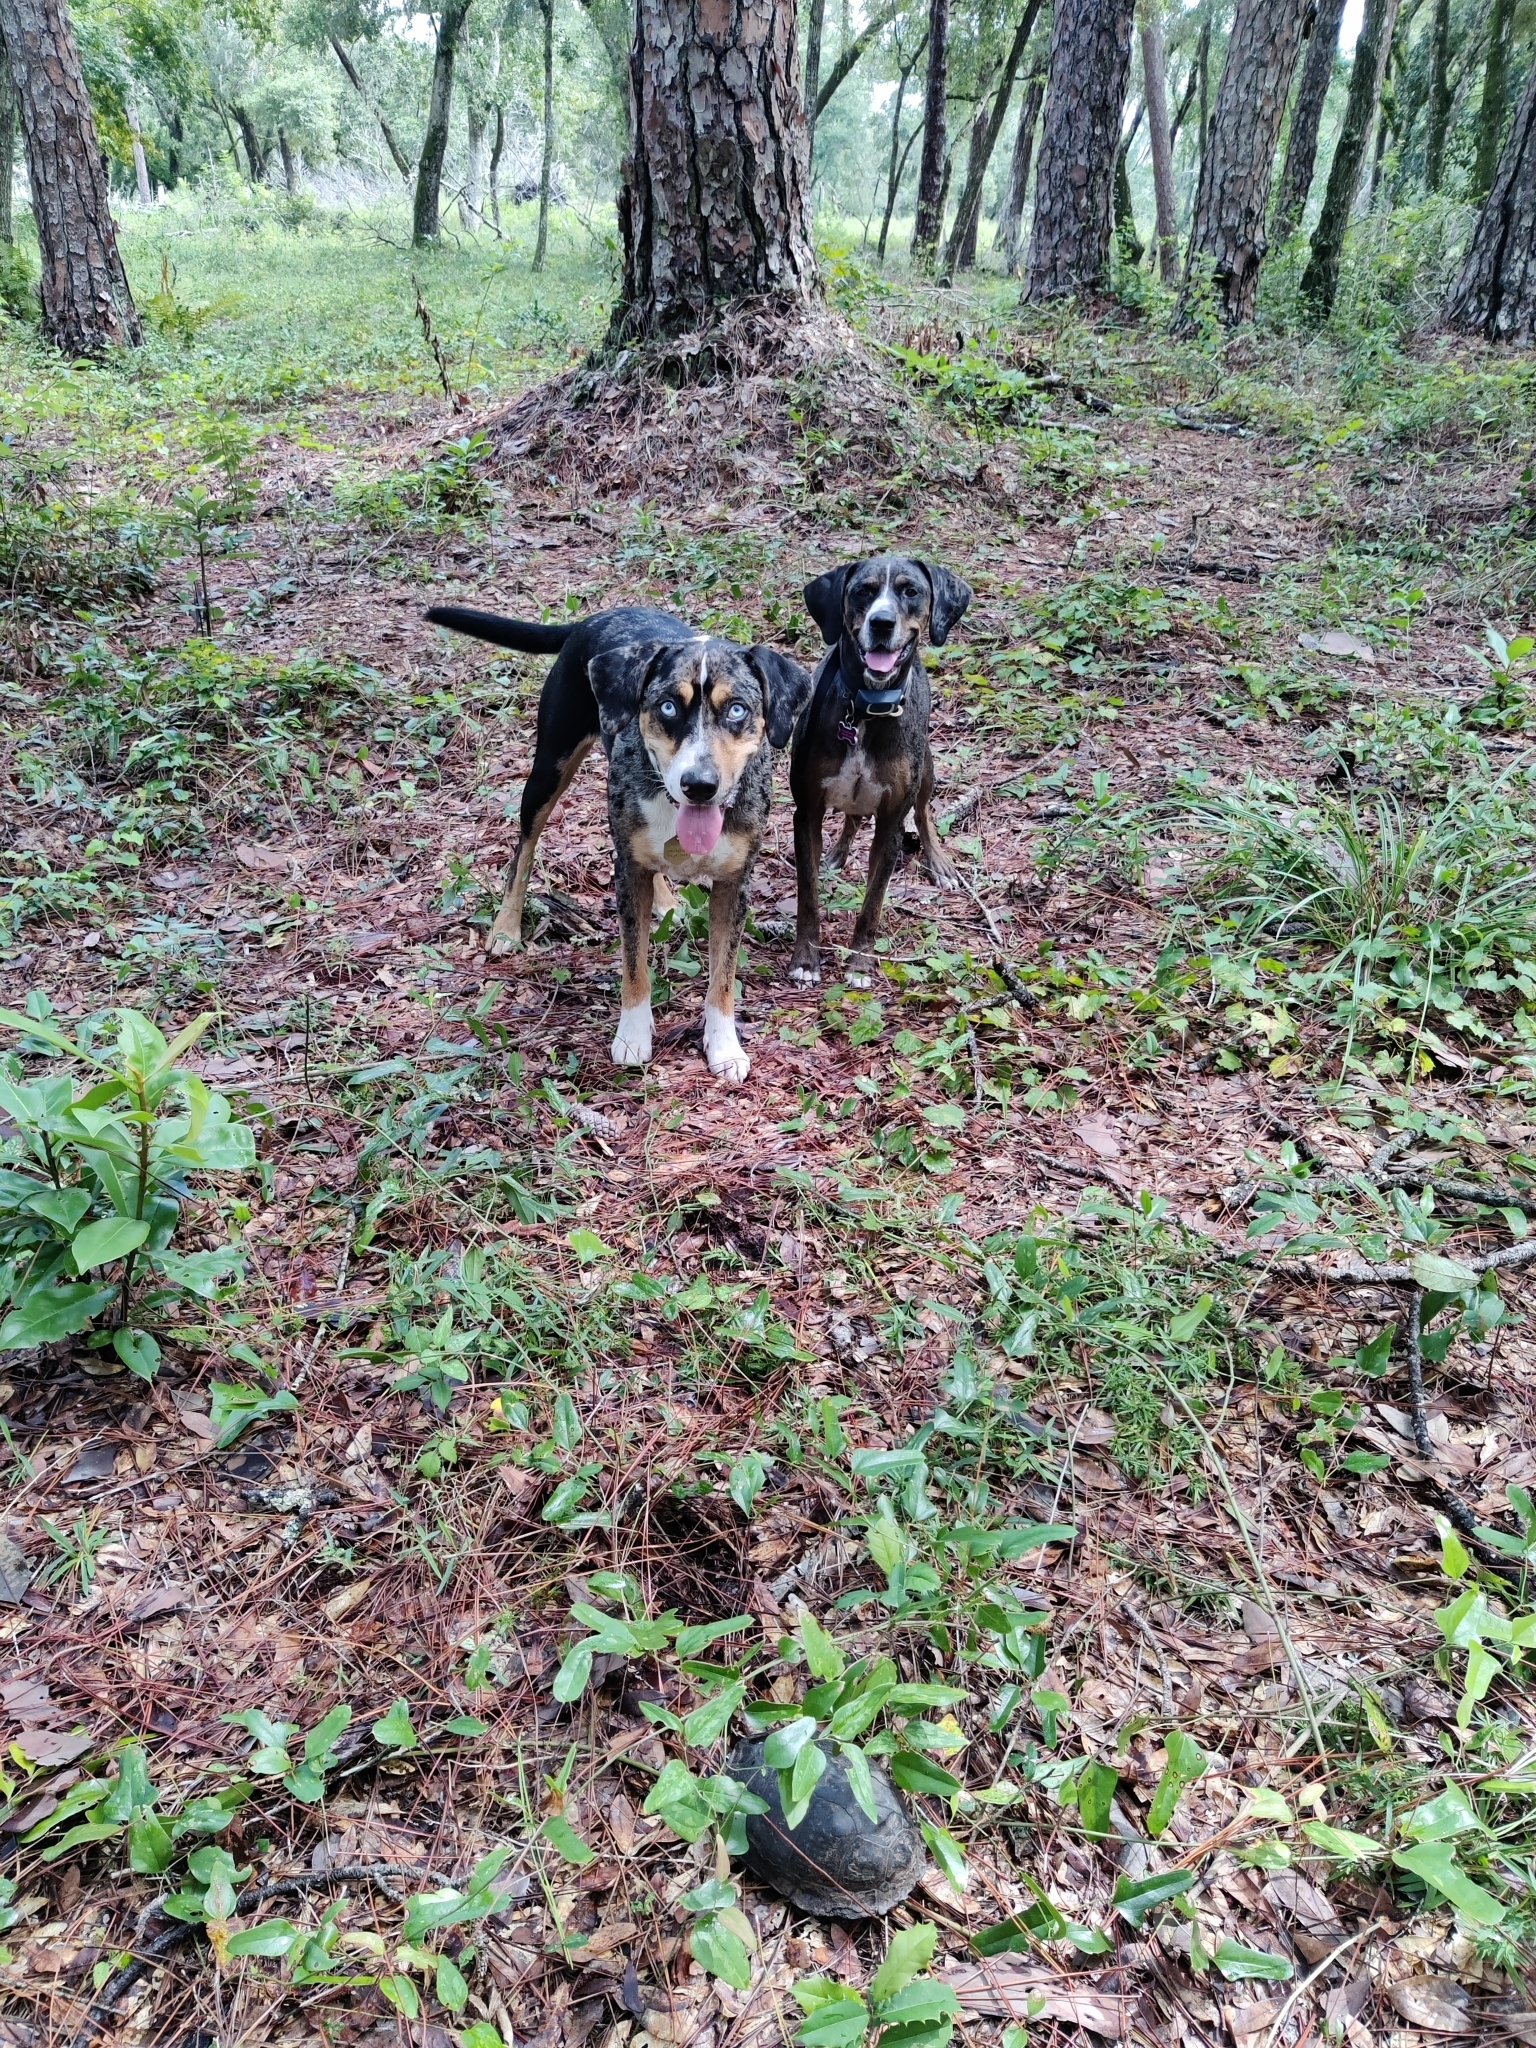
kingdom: Animalia
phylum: Chordata
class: Testudines
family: Emydidae
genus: Terrapene
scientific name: Terrapene carolina
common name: Common box turtle
